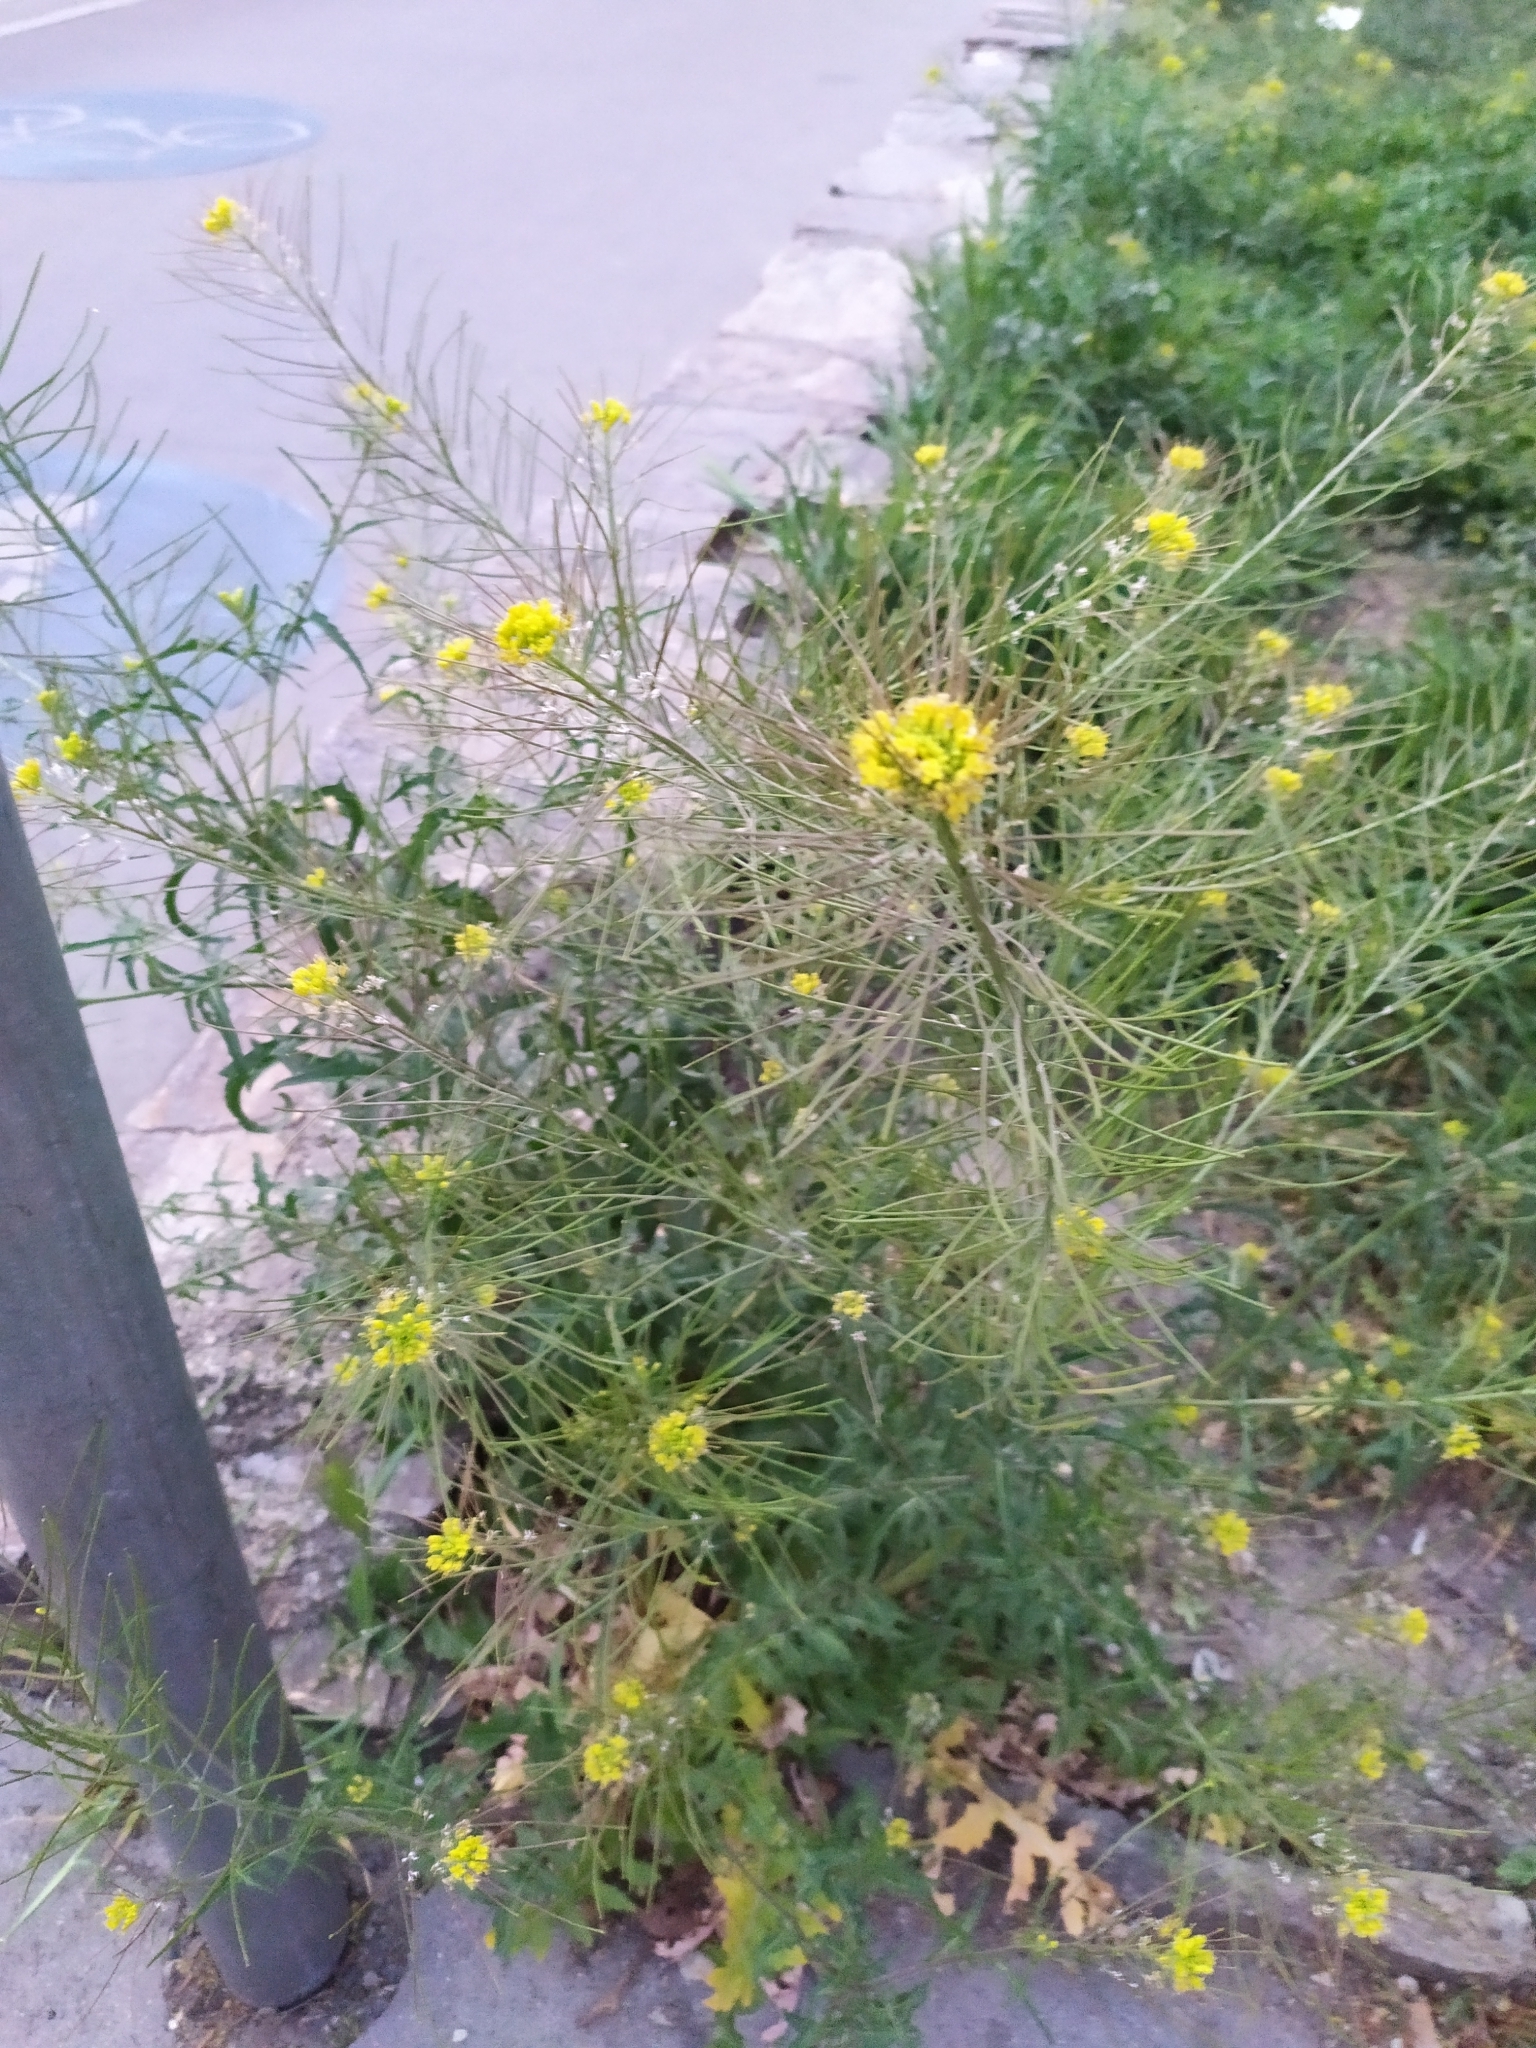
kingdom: Plantae
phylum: Tracheophyta
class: Magnoliopsida
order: Brassicales
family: Brassicaceae
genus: Sisymbrium
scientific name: Sisymbrium irio
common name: London rocket
